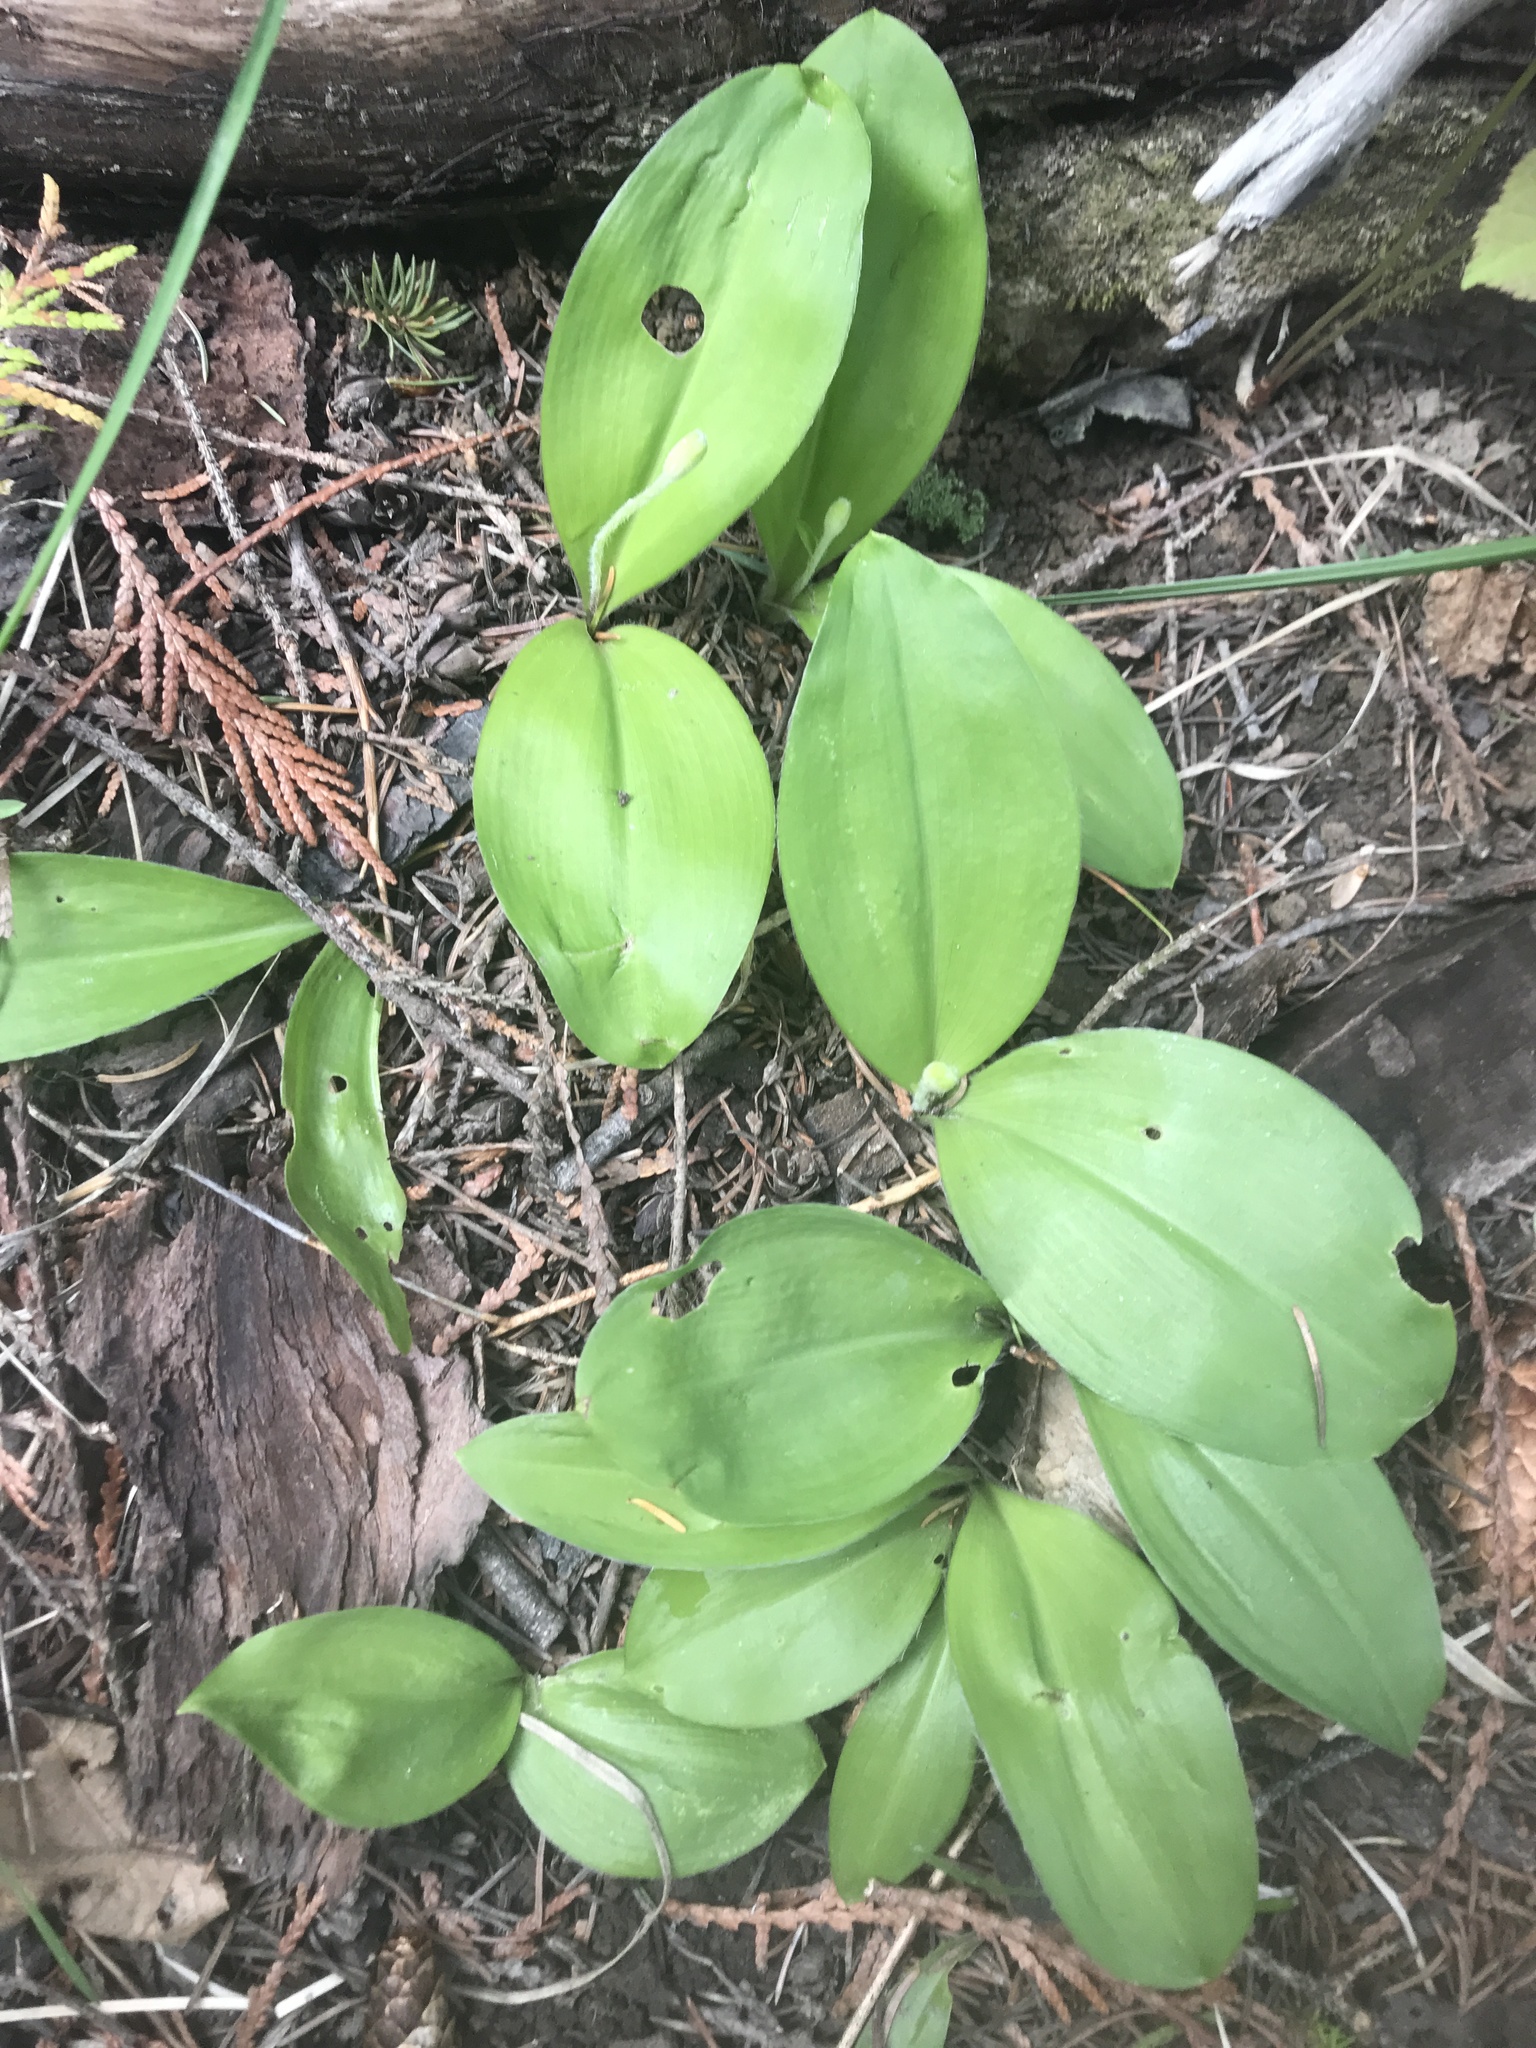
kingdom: Plantae
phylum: Tracheophyta
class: Liliopsida
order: Liliales
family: Liliaceae
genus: Clintonia
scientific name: Clintonia uniflora
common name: Queen's cup
